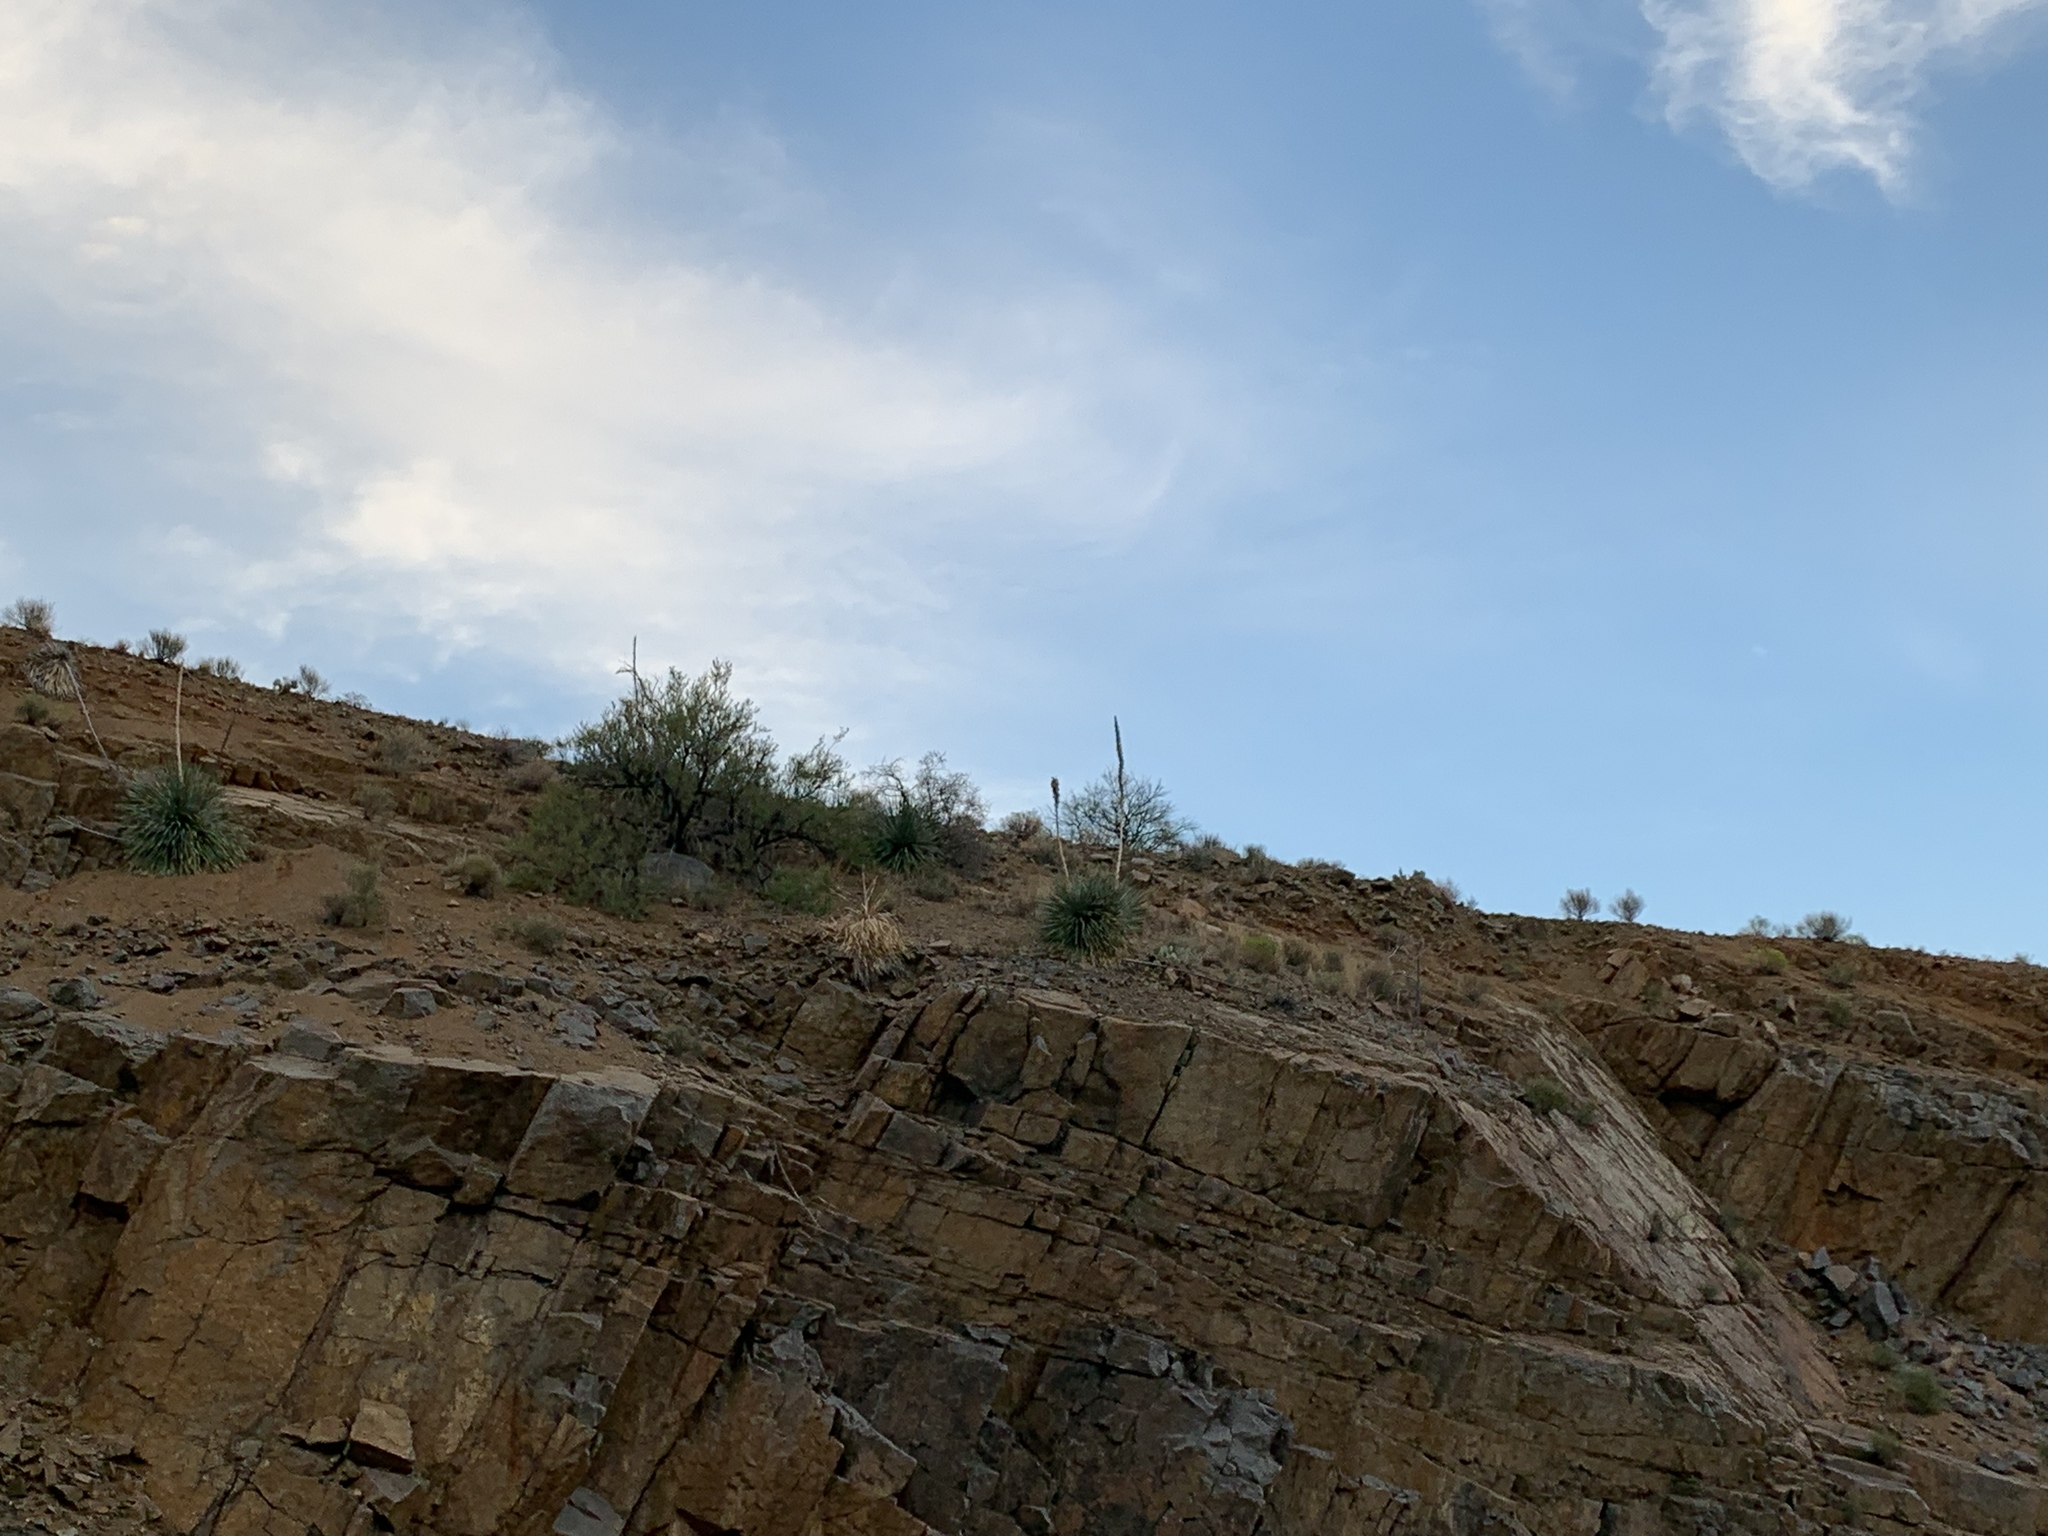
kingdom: Plantae
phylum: Tracheophyta
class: Liliopsida
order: Asparagales
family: Asparagaceae
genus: Dasylirion
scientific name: Dasylirion wheeleri
